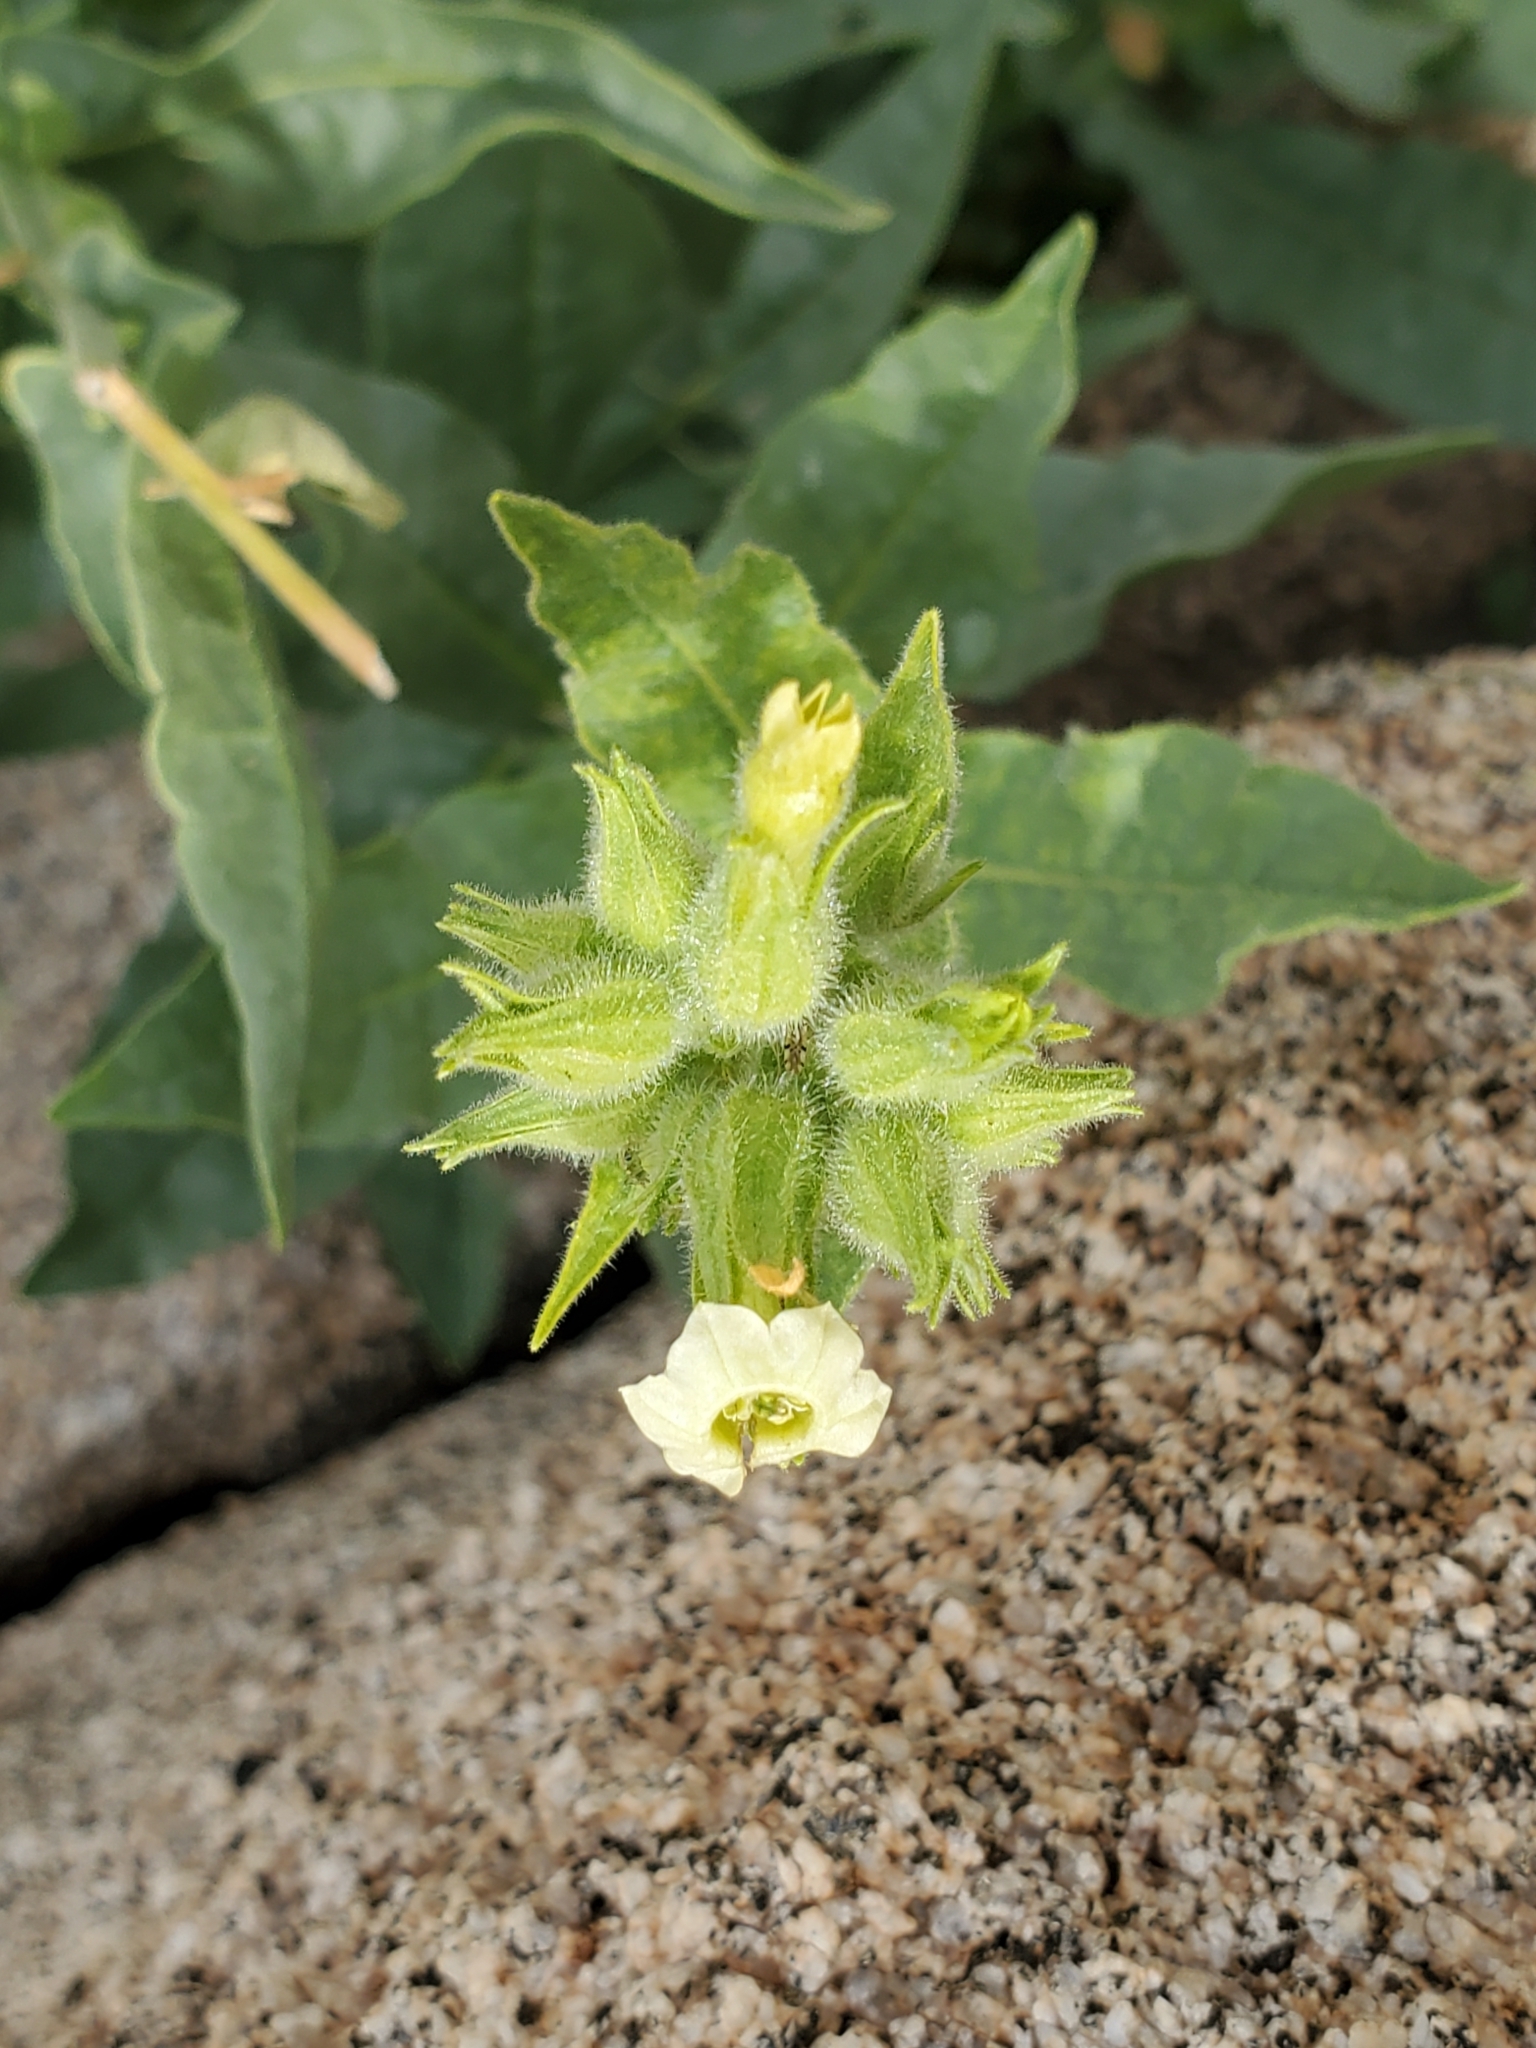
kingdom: Plantae
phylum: Tracheophyta
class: Magnoliopsida
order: Solanales
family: Solanaceae
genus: Nicotiana
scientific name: Nicotiana obtusifolia
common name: Desert tobacco
